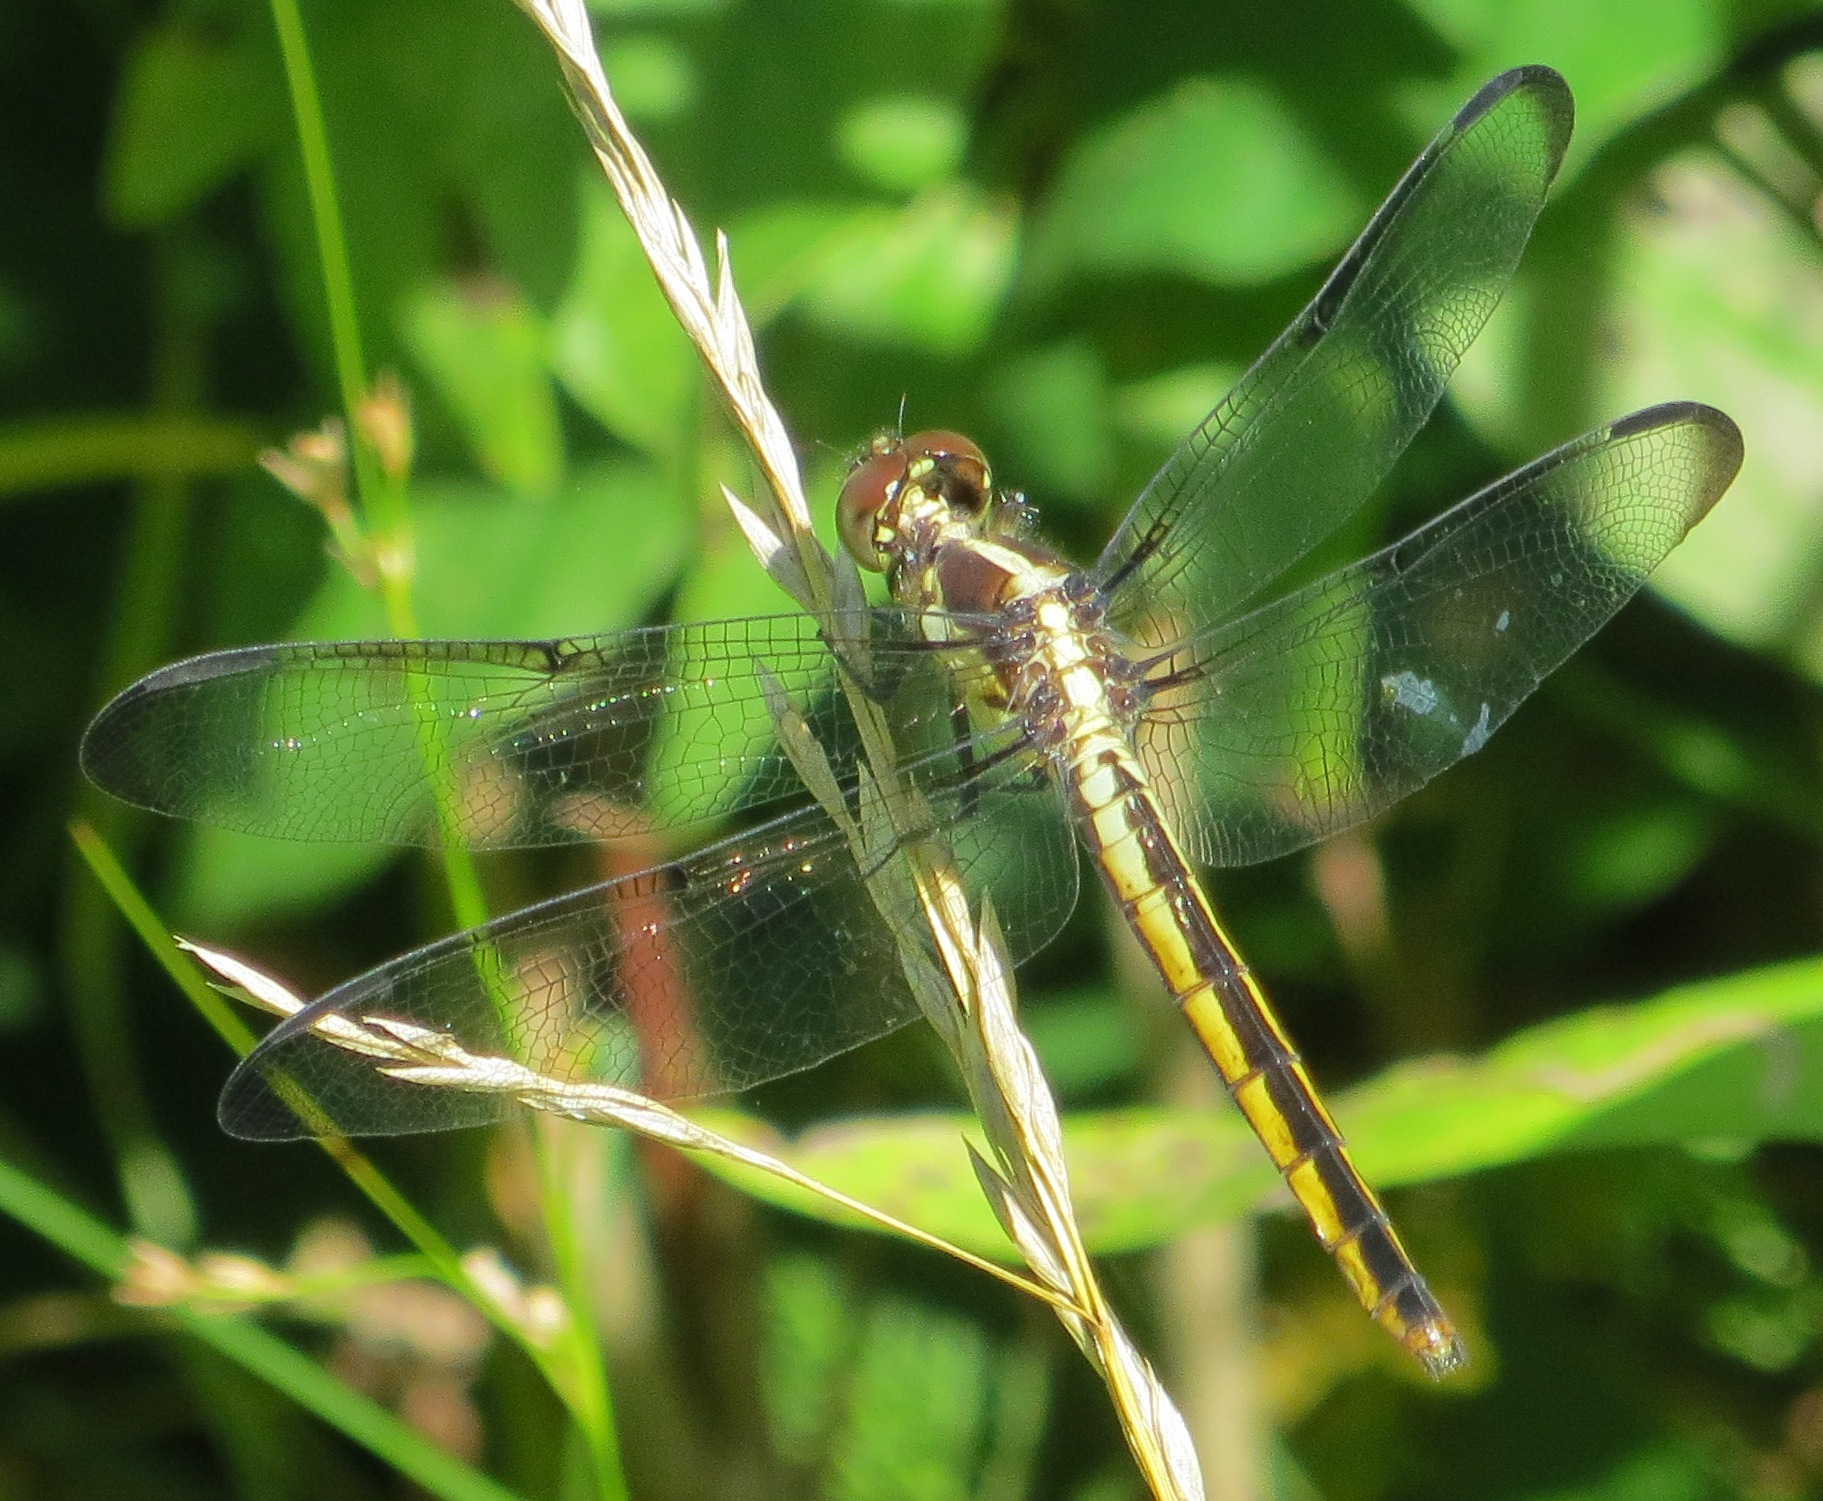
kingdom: Animalia
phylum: Arthropoda
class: Insecta
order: Odonata
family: Libellulidae
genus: Libellula
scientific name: Libellula vibrans
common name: Great blue skimmer
